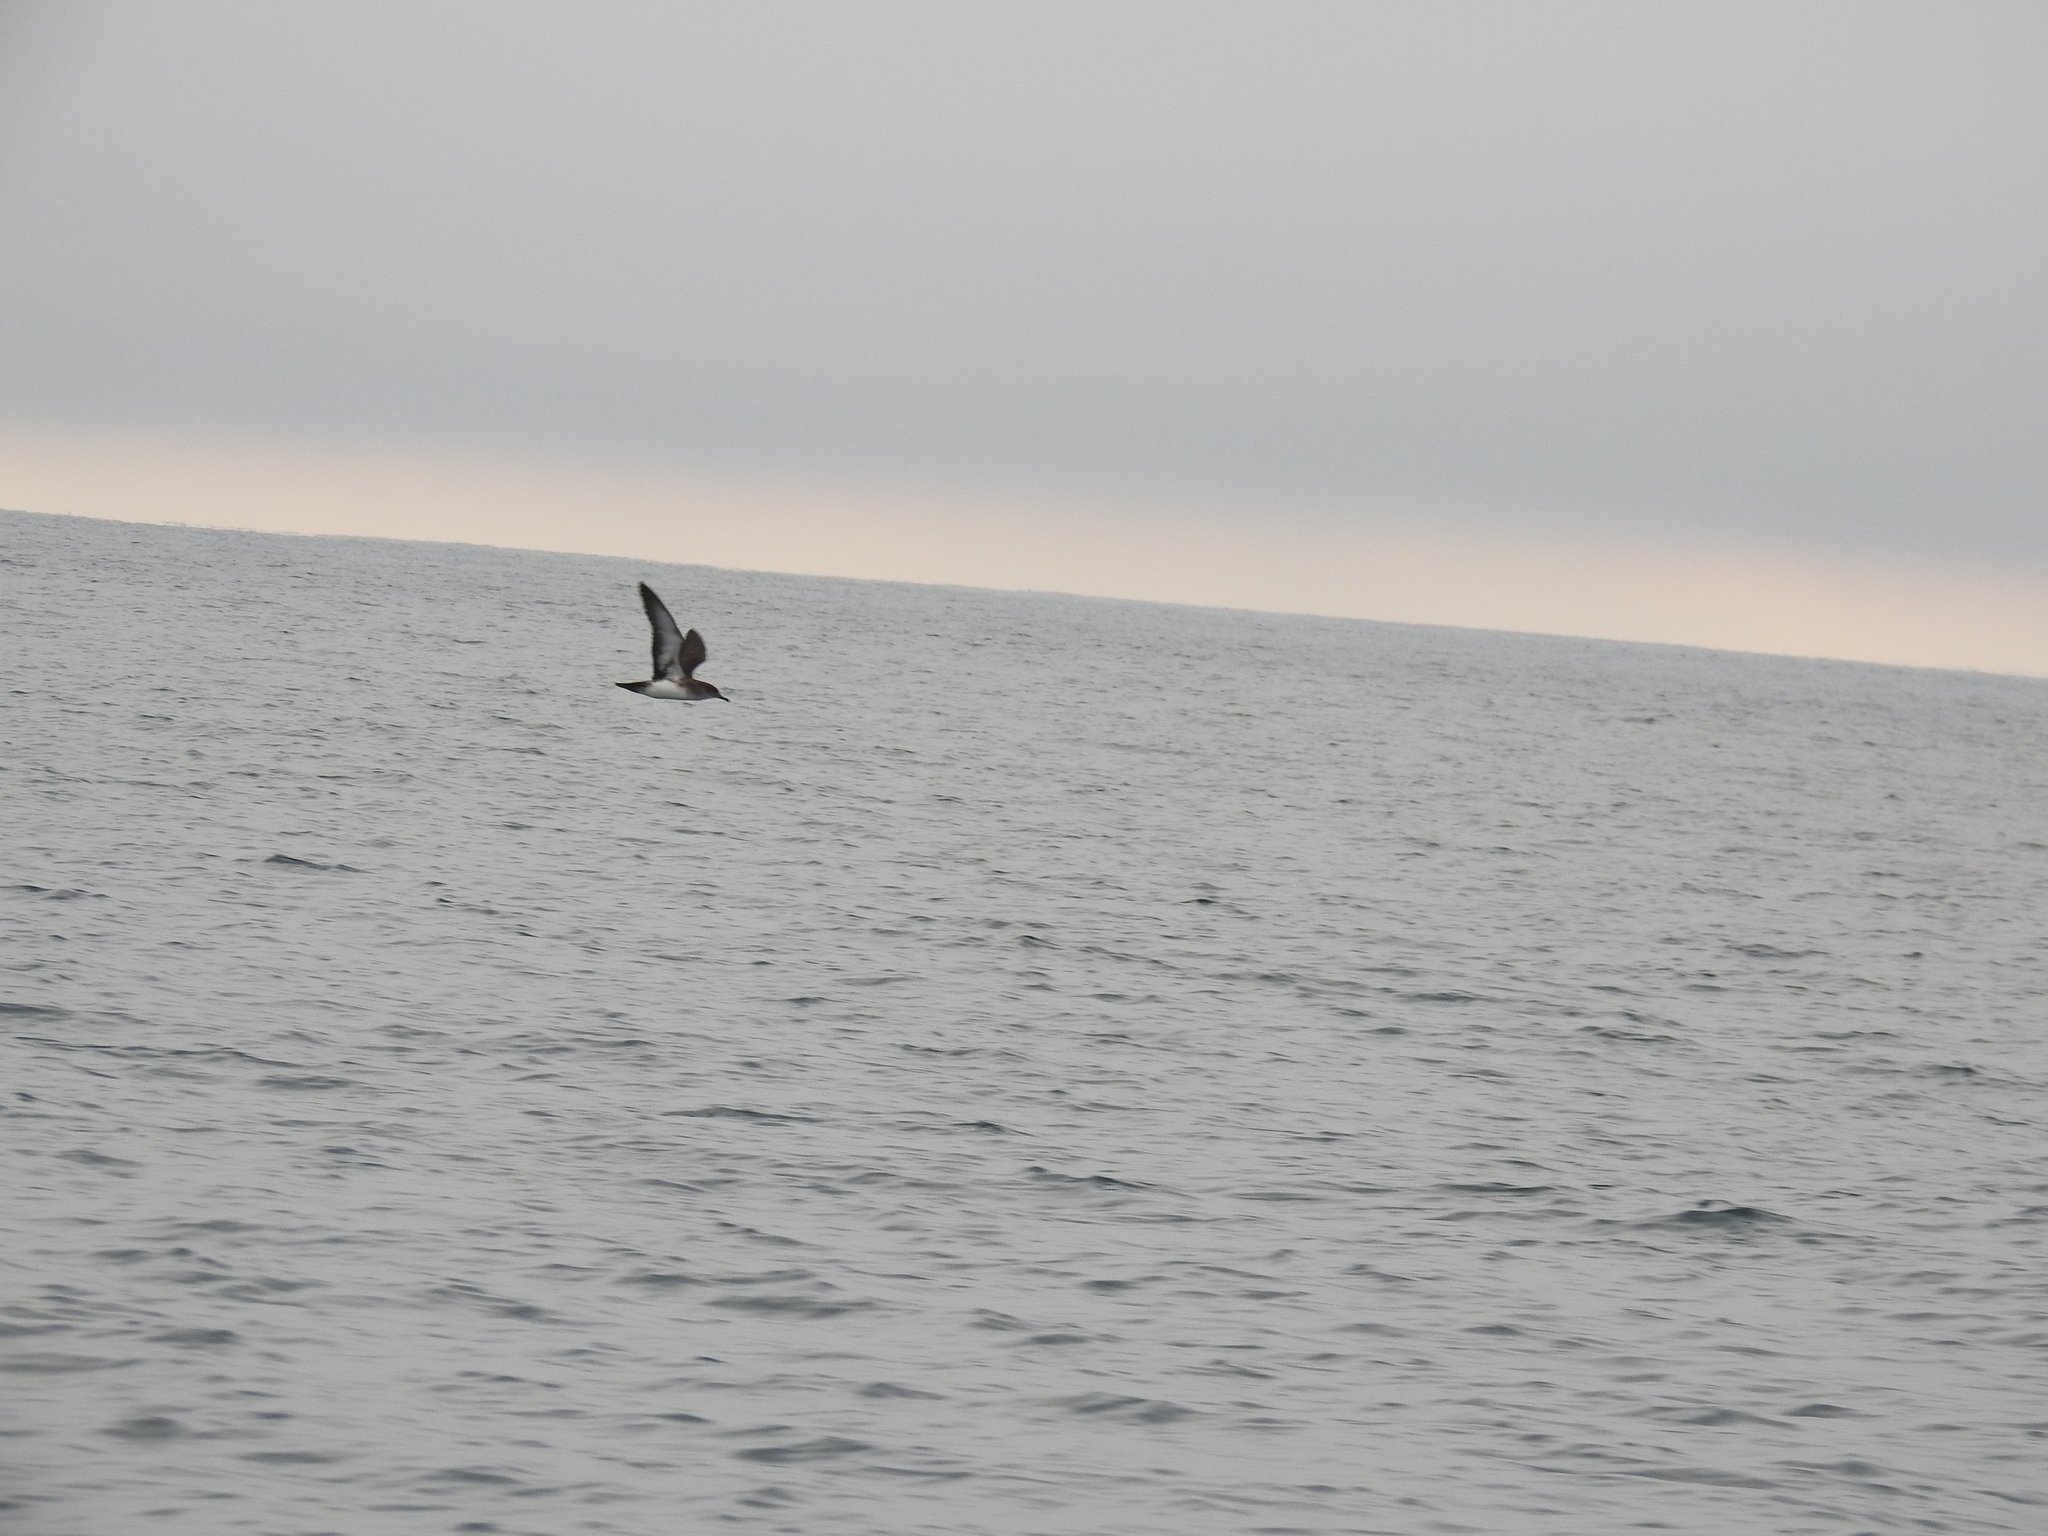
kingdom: Animalia
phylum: Chordata
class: Aves
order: Procellariiformes
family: Procellariidae
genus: Puffinus
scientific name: Puffinus opisthomelas
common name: Black-vented shearwater
